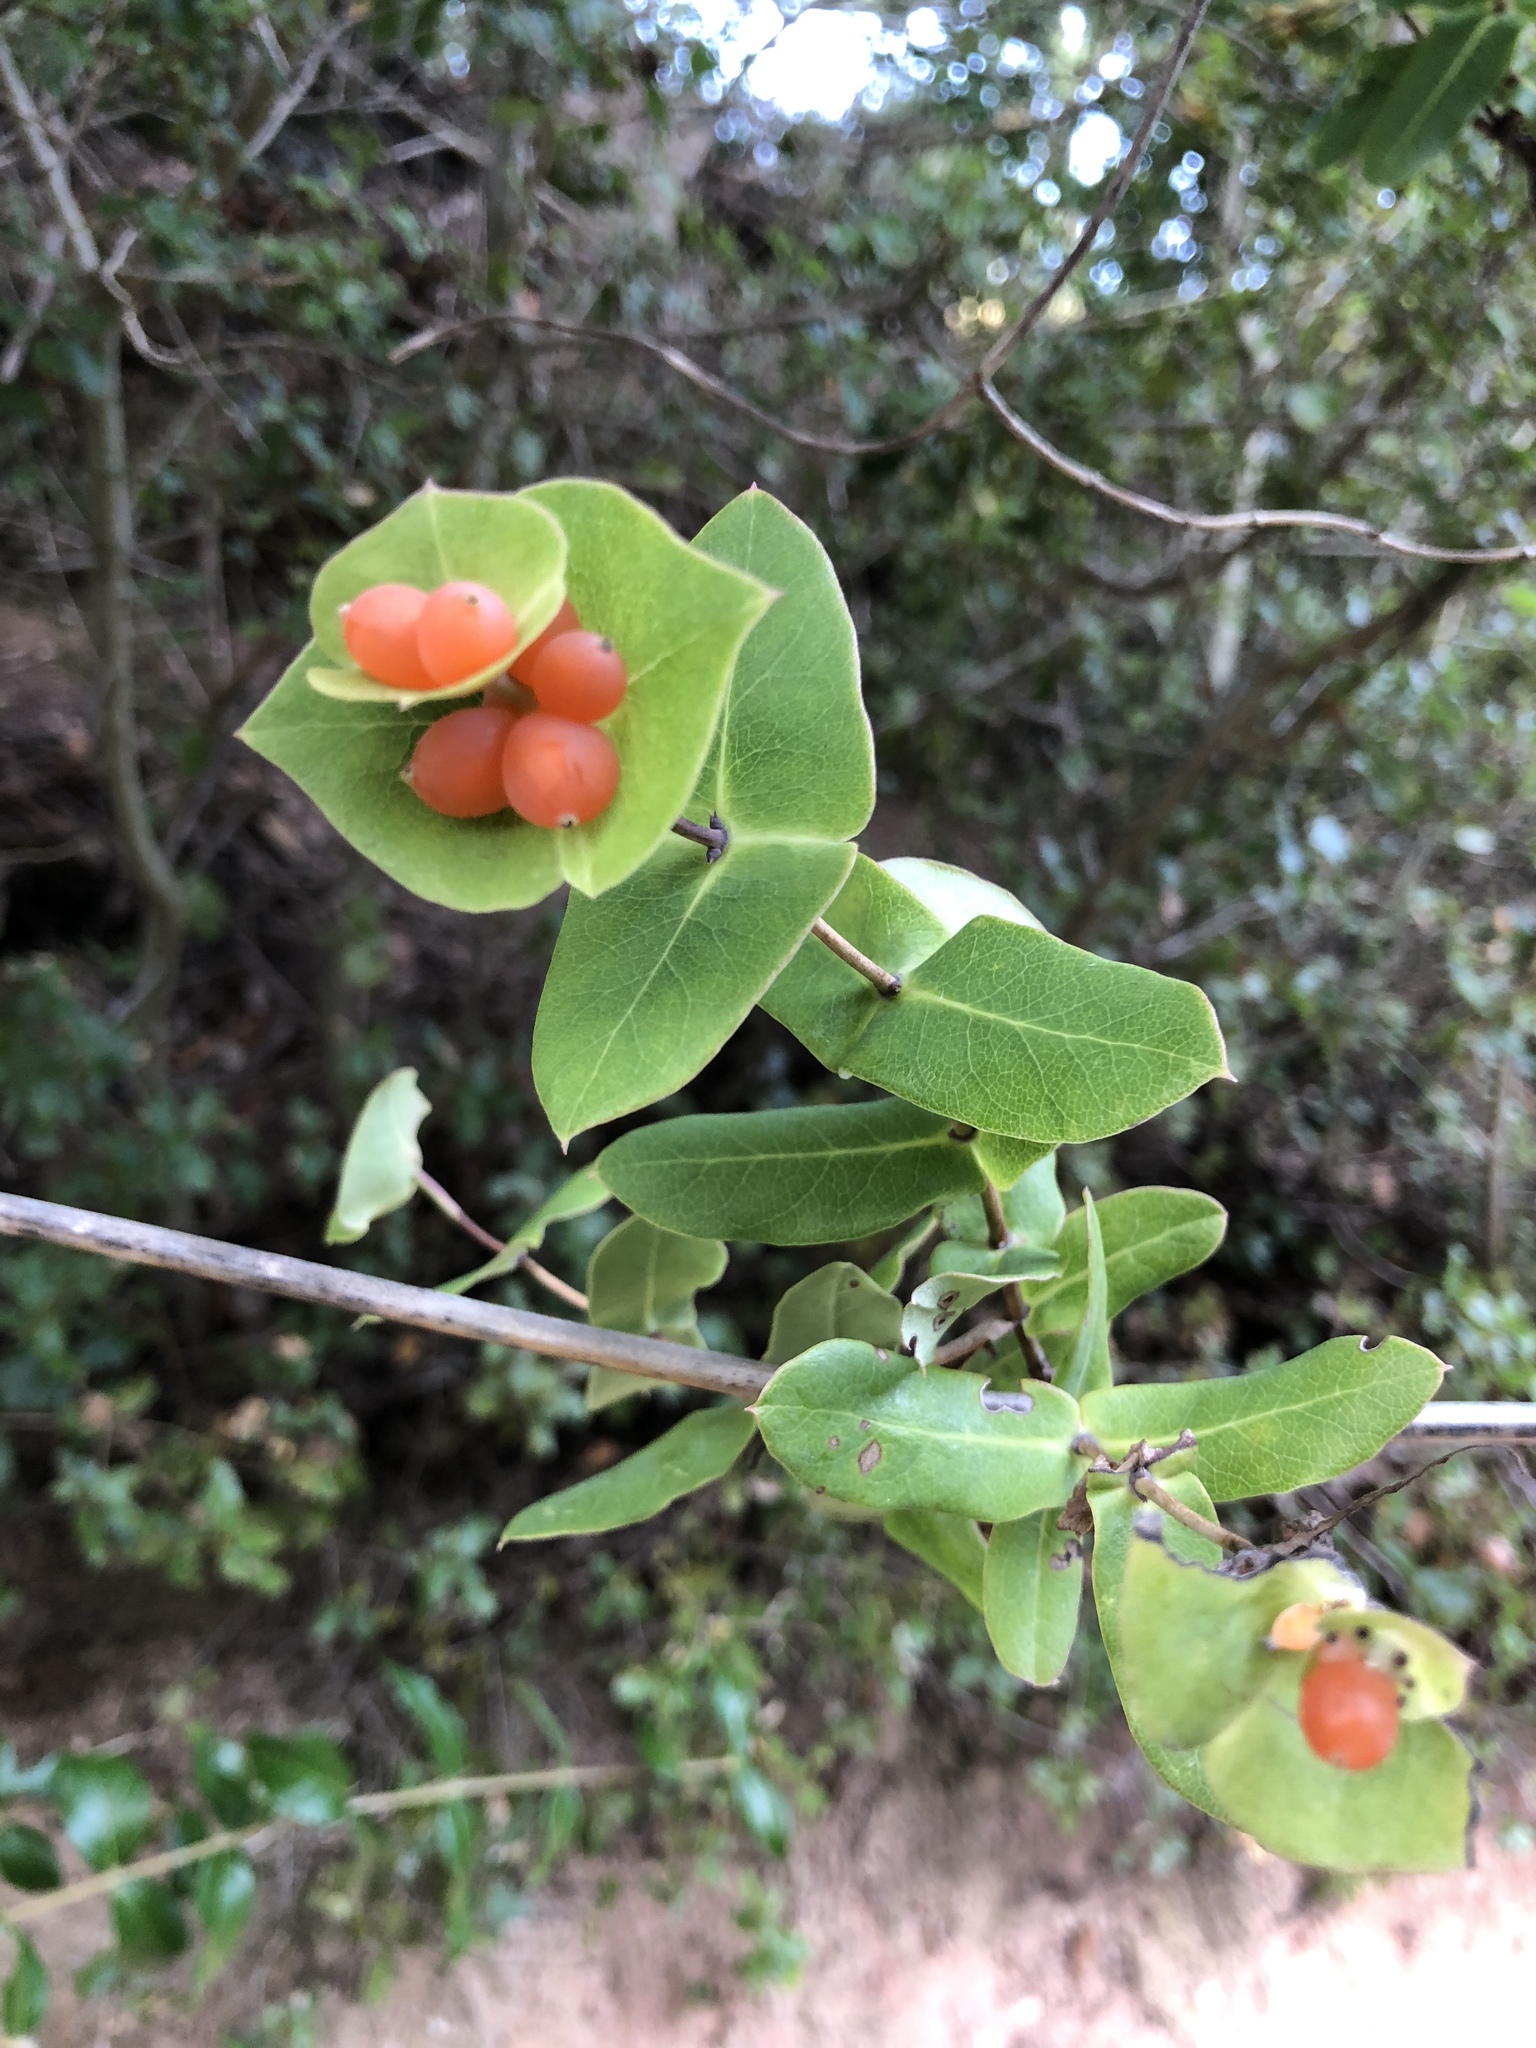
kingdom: Plantae
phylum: Tracheophyta
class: Magnoliopsida
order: Dipsacales
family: Caprifoliaceae
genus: Lonicera
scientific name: Lonicera implexa
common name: Minorca honeysuckle
